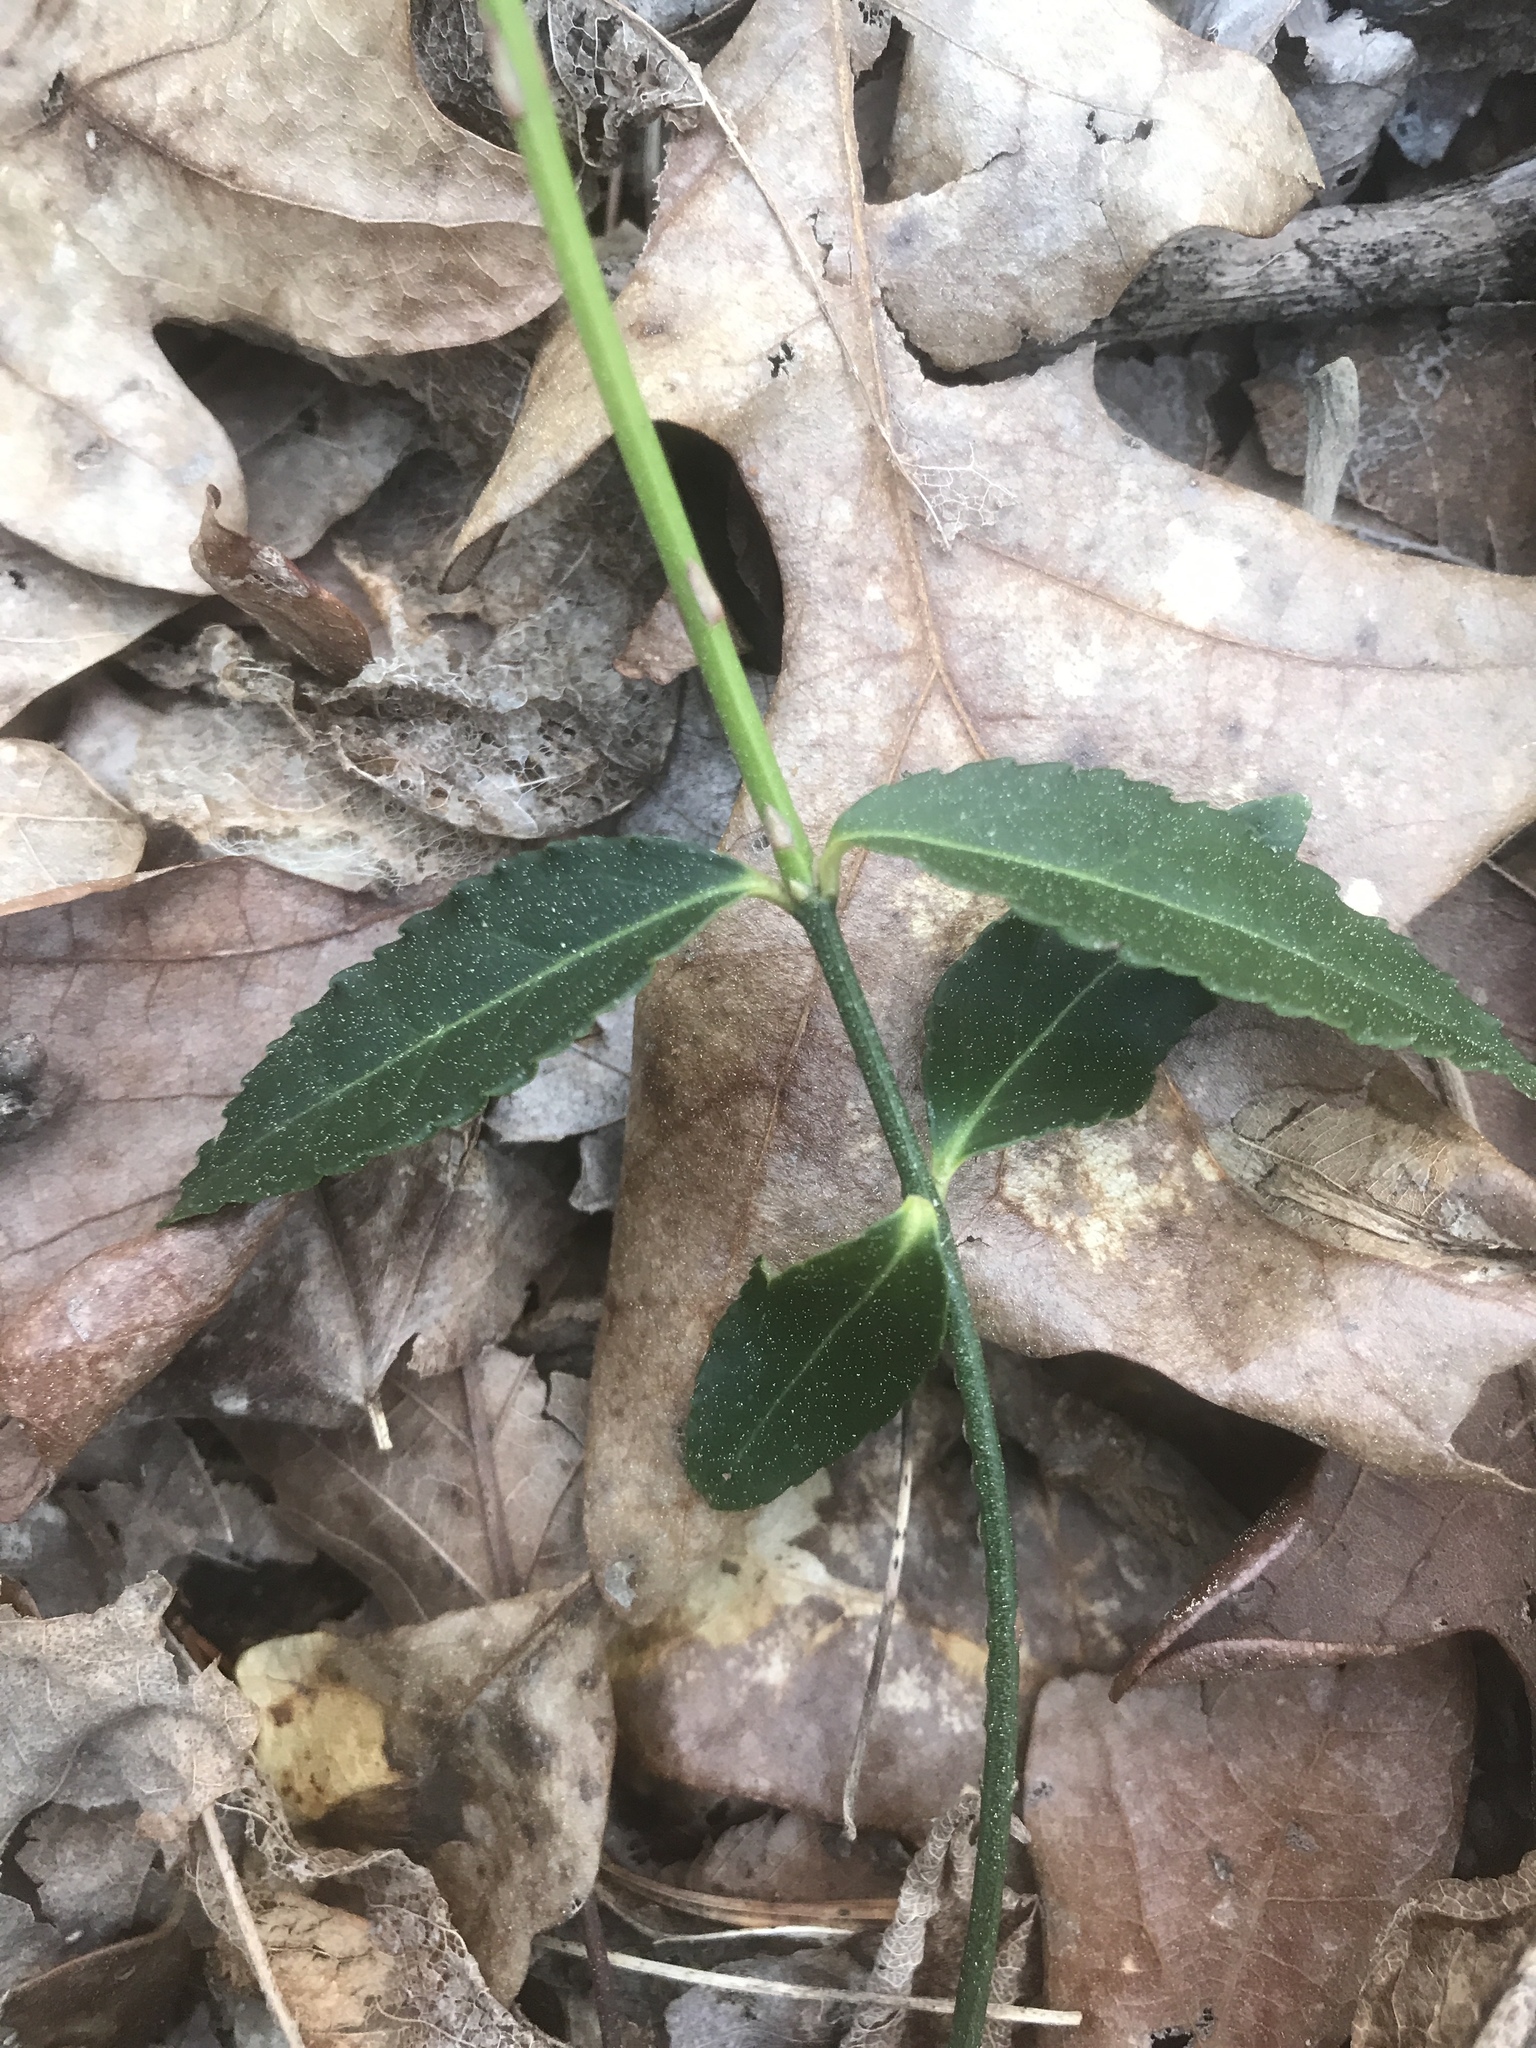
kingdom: Plantae
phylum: Tracheophyta
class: Magnoliopsida
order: Celastrales
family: Celastraceae
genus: Euonymus
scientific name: Euonymus americanus
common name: Bursting-heart
